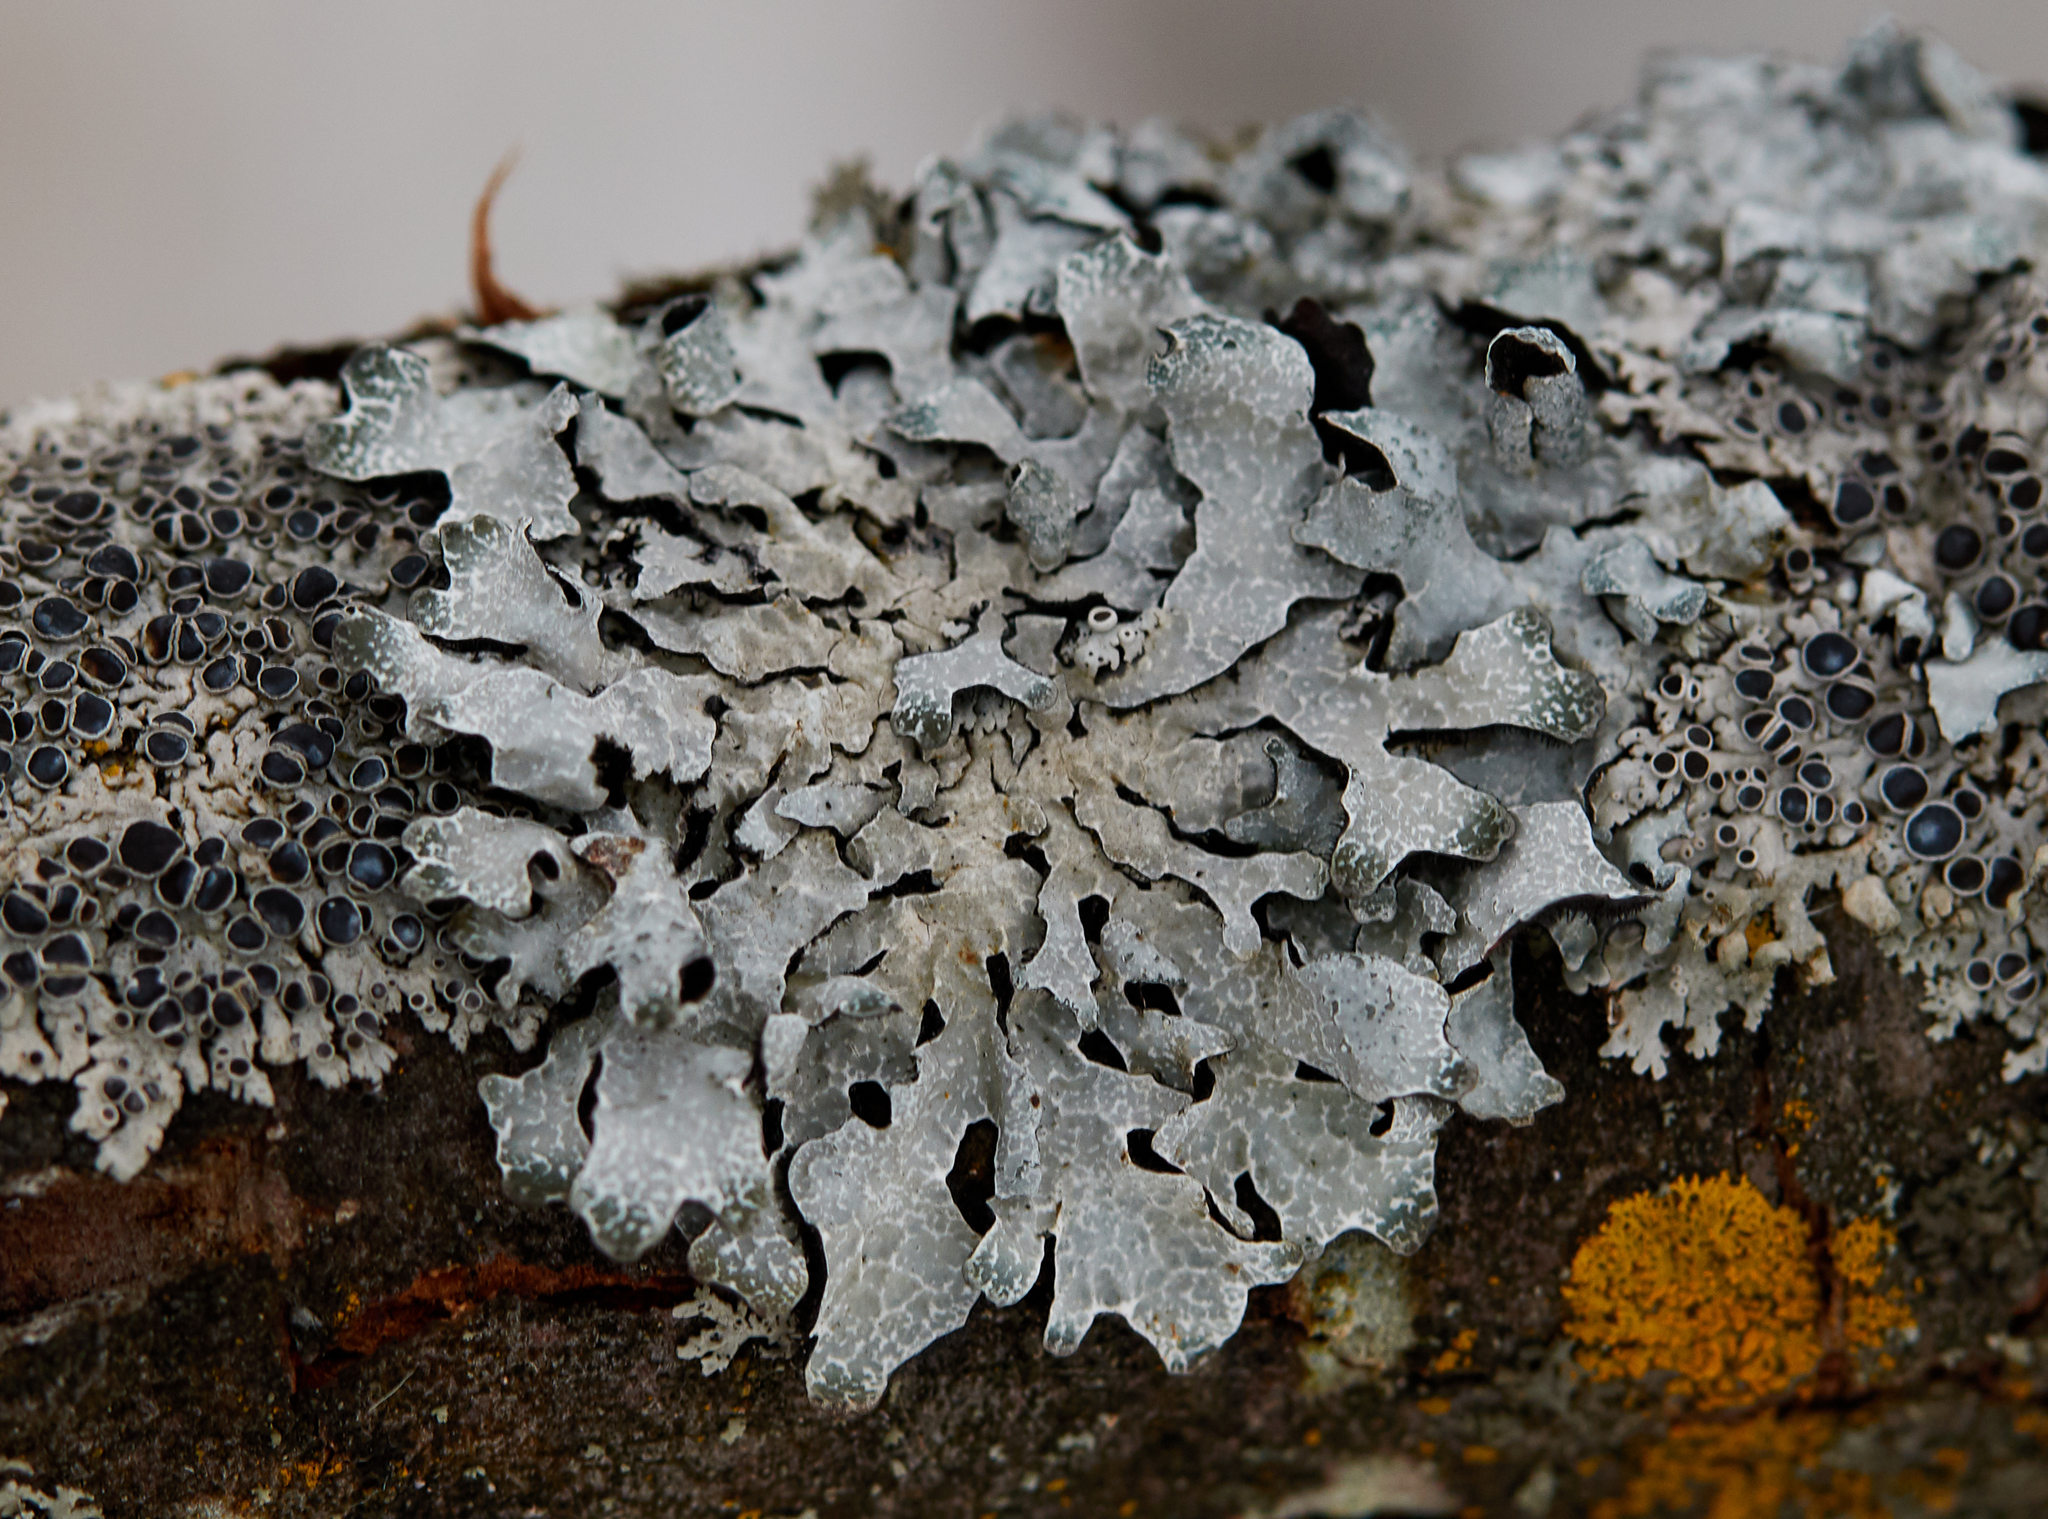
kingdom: Fungi
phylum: Ascomycota
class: Lecanoromycetes
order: Lecanorales
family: Parmeliaceae
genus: Parmelia
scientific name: Parmelia sulcata
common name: Netted shield lichen
